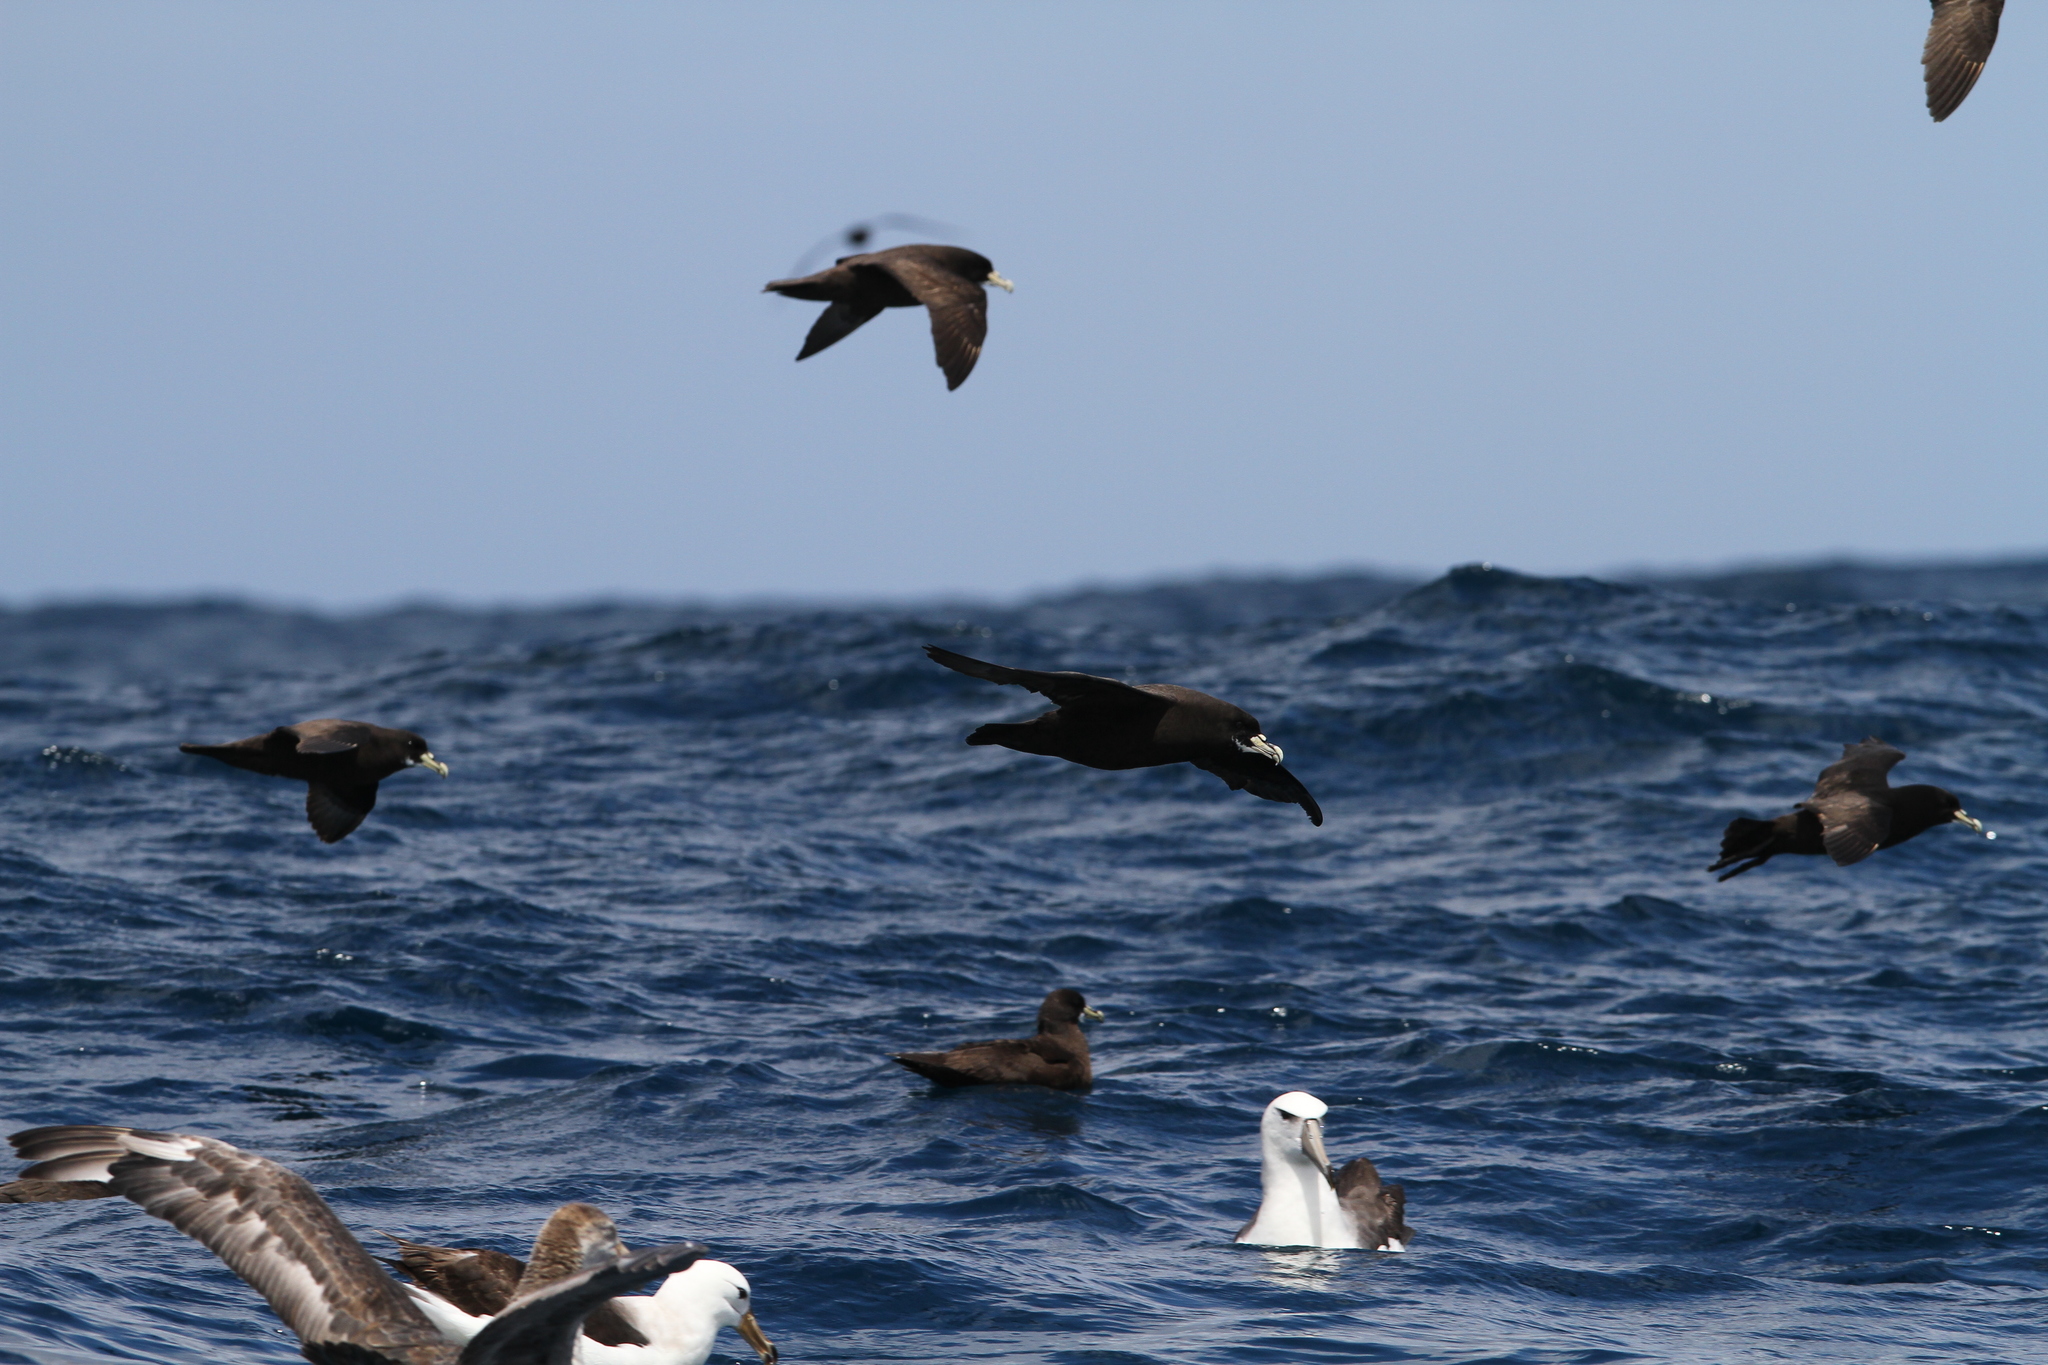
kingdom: Animalia
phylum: Chordata
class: Aves
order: Procellariiformes
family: Procellariidae
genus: Procellaria
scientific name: Procellaria aequinoctialis
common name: White-chinned petrel
